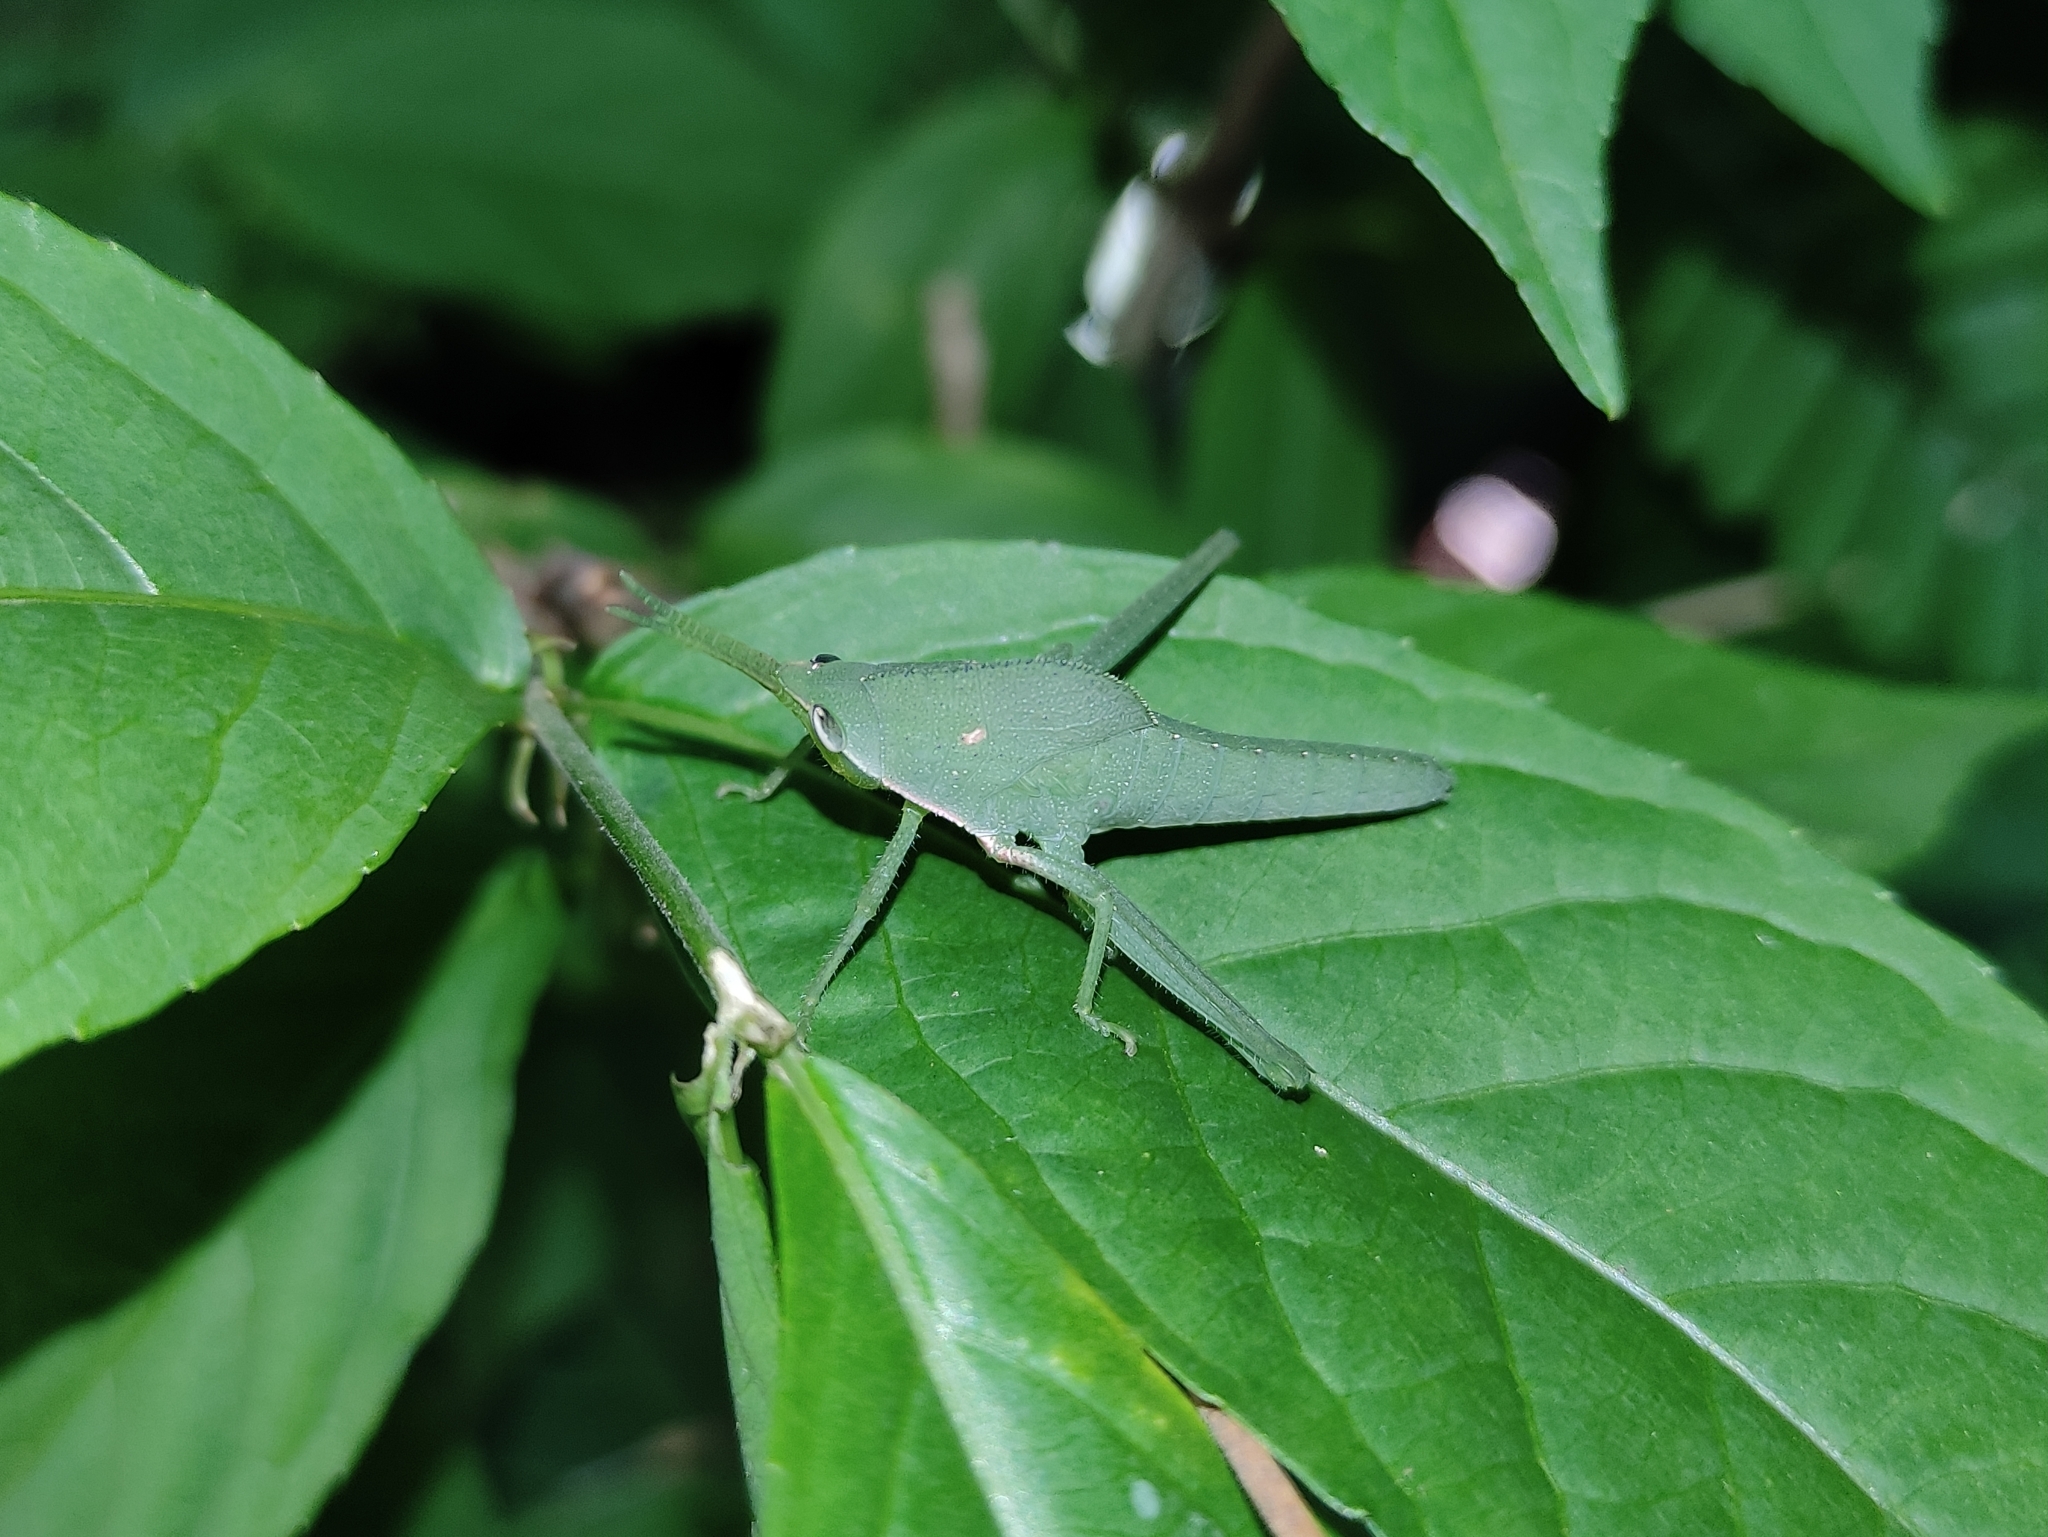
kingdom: Animalia
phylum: Arthropoda
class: Insecta
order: Orthoptera
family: Romaleidae
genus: Prionolopha
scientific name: Prionolopha serrata
